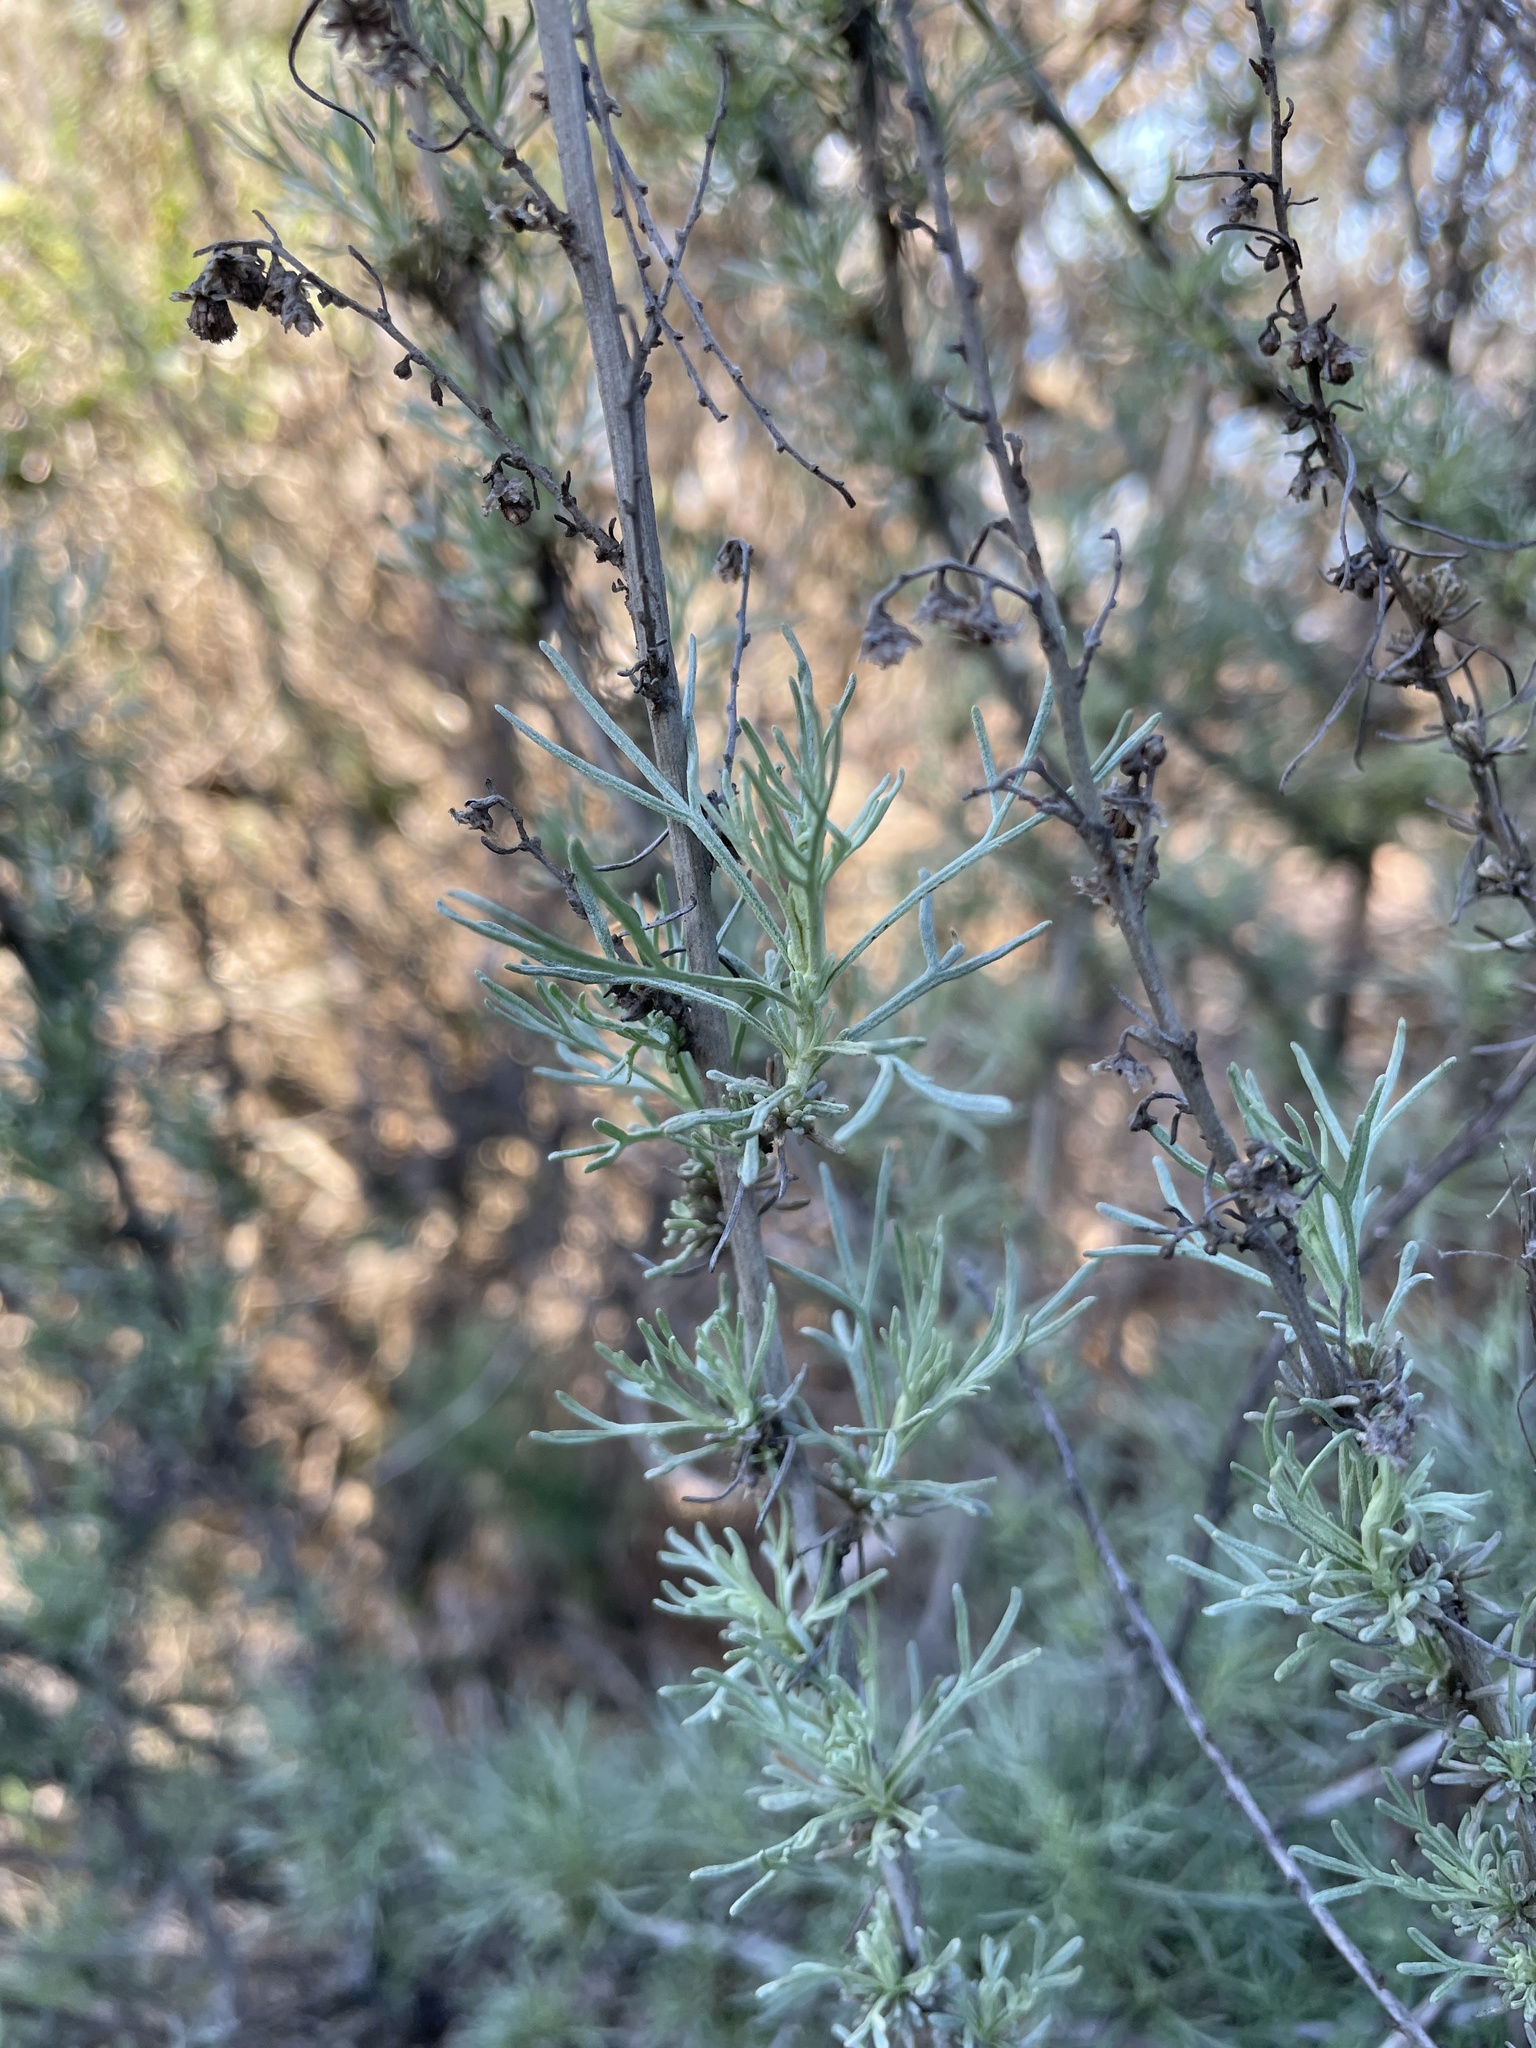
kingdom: Plantae
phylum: Tracheophyta
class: Magnoliopsida
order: Asterales
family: Asteraceae
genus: Artemisia
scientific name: Artemisia californica
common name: California sagebrush
